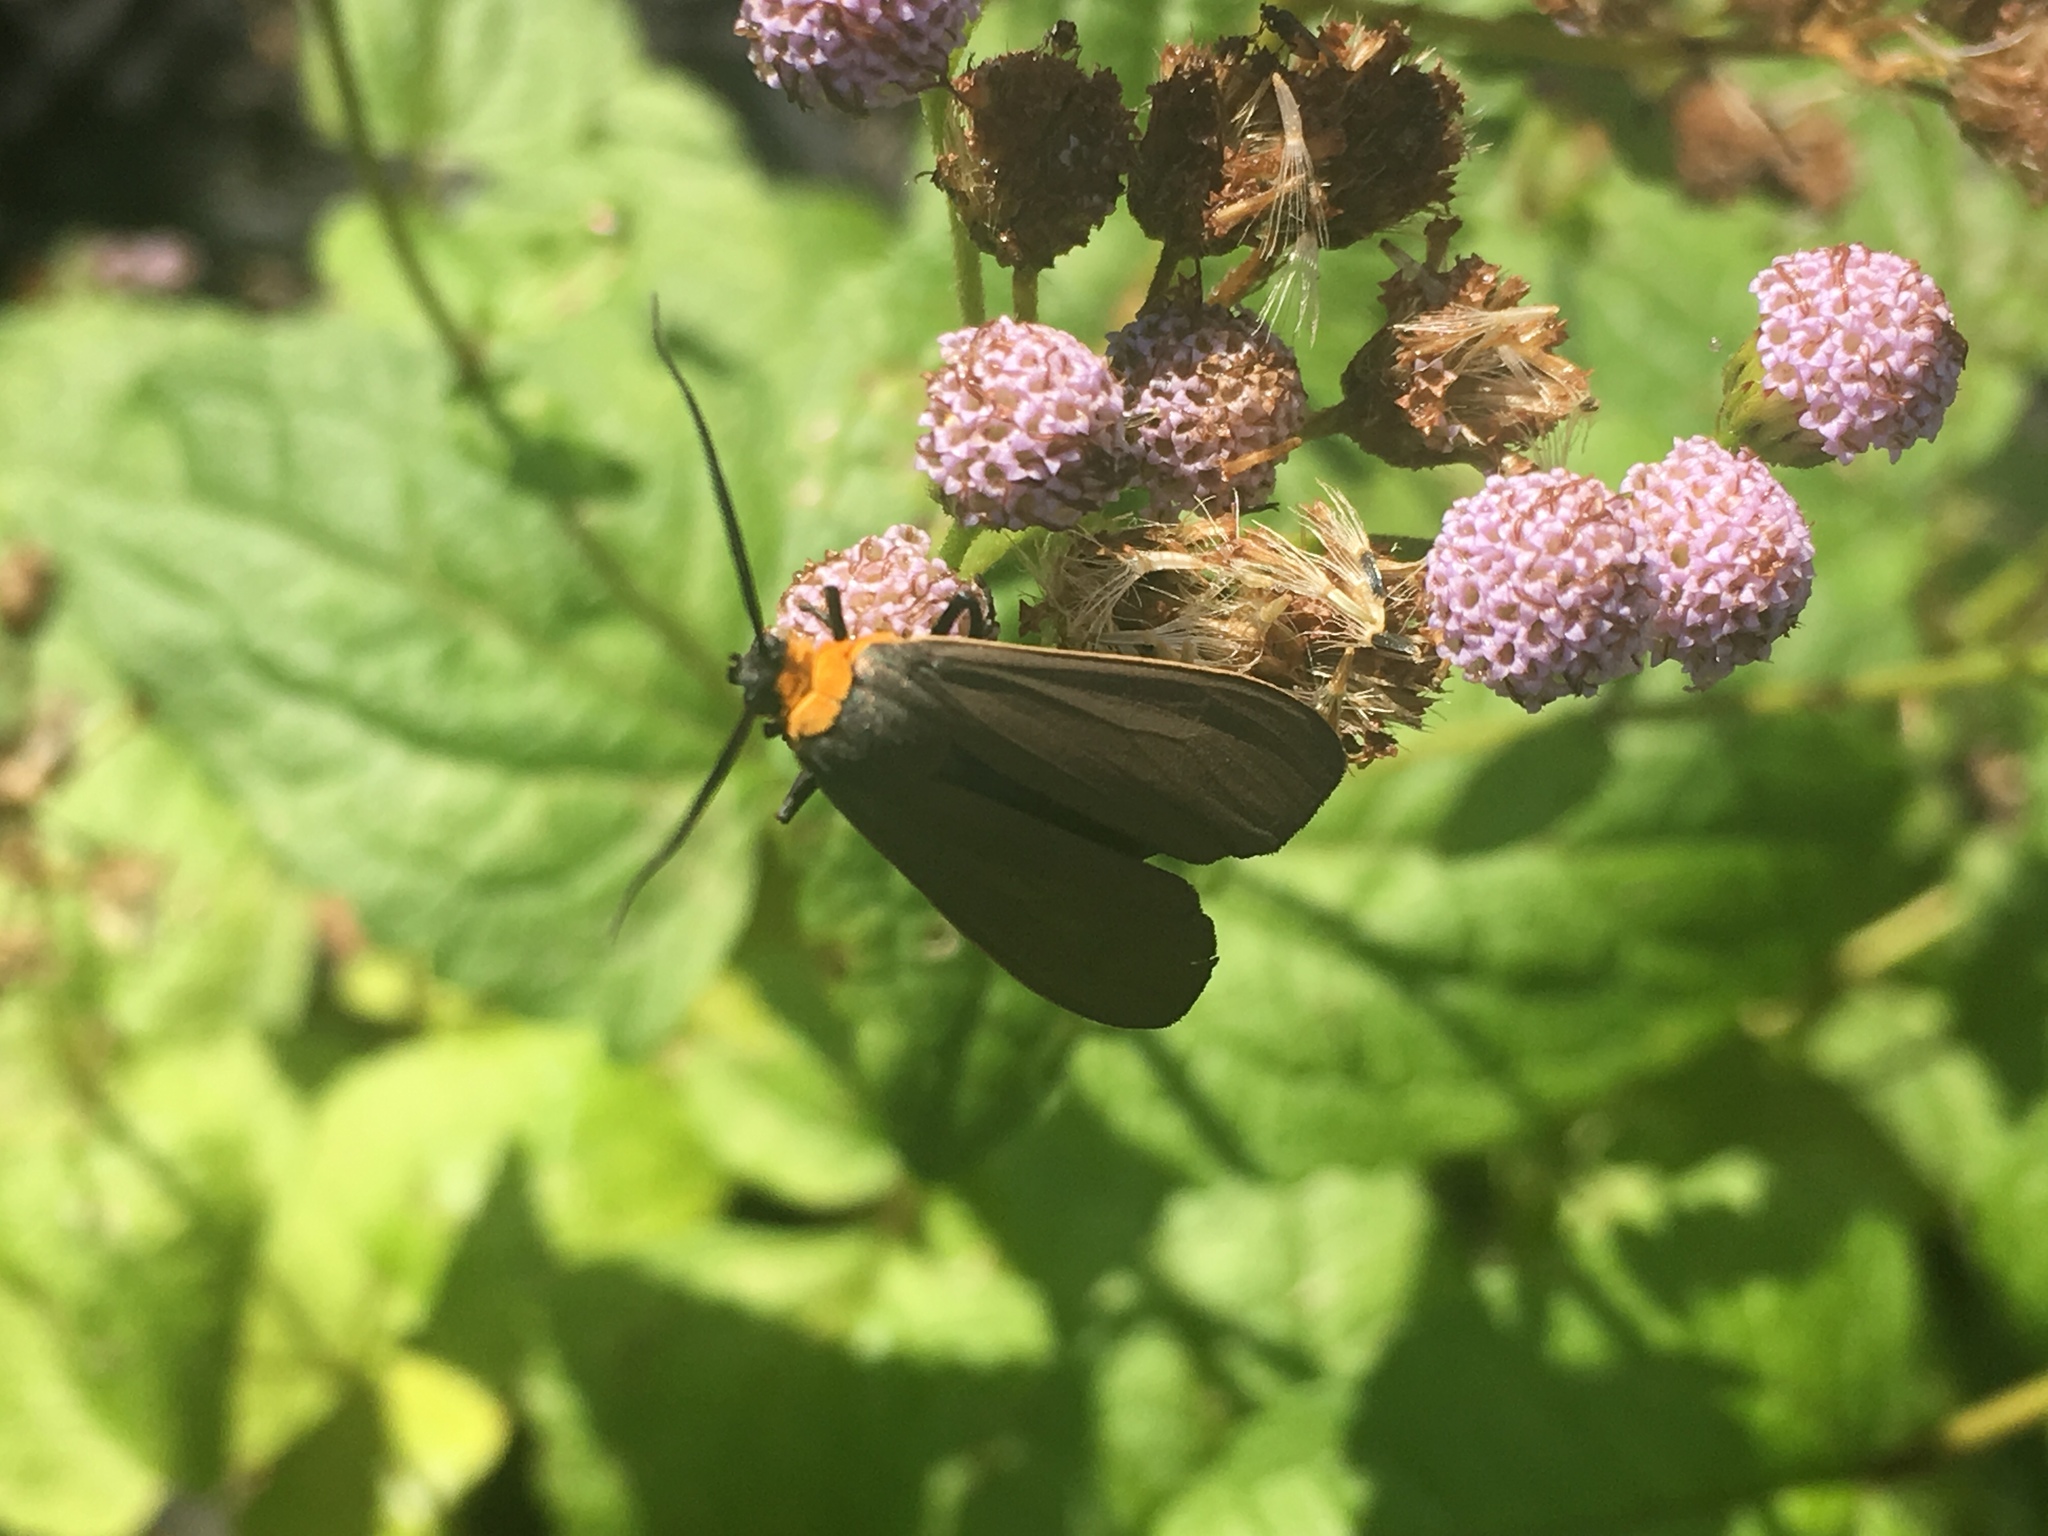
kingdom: Animalia
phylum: Arthropoda
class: Insecta
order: Lepidoptera
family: Erebidae
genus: Cisseps
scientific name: Cisseps fulvicollis
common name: Yellow-collared scape moth
